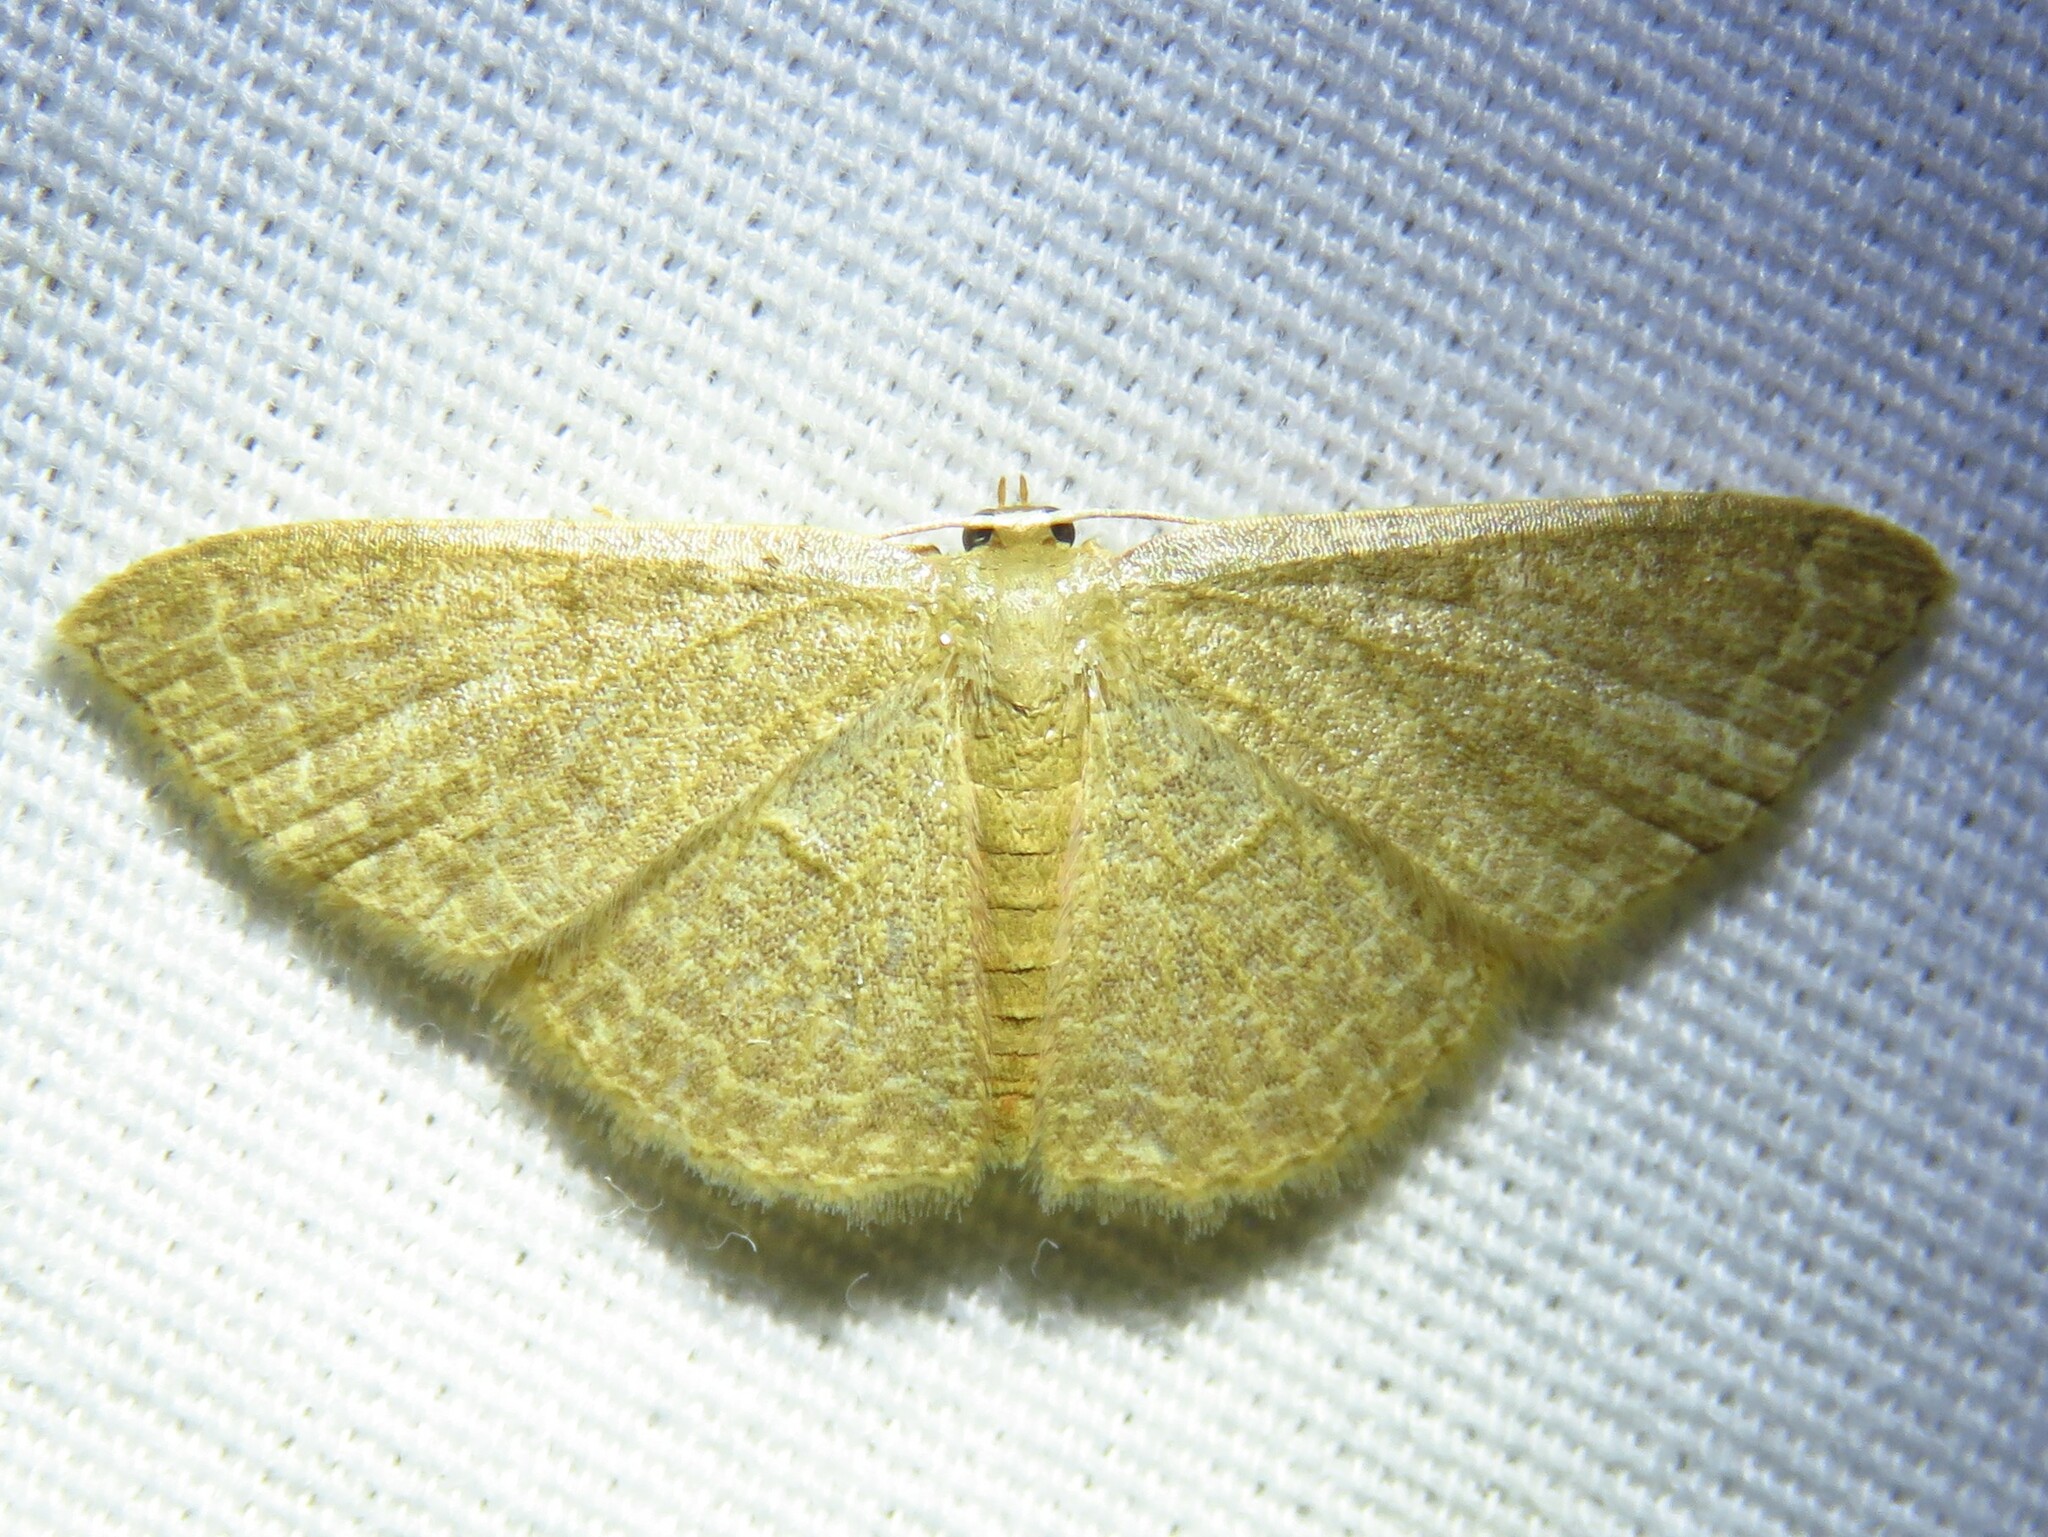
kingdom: Animalia
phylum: Arthropoda
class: Insecta
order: Lepidoptera
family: Geometridae
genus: Pleuroprucha
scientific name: Pleuroprucha insulsaria
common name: Common tan wave
